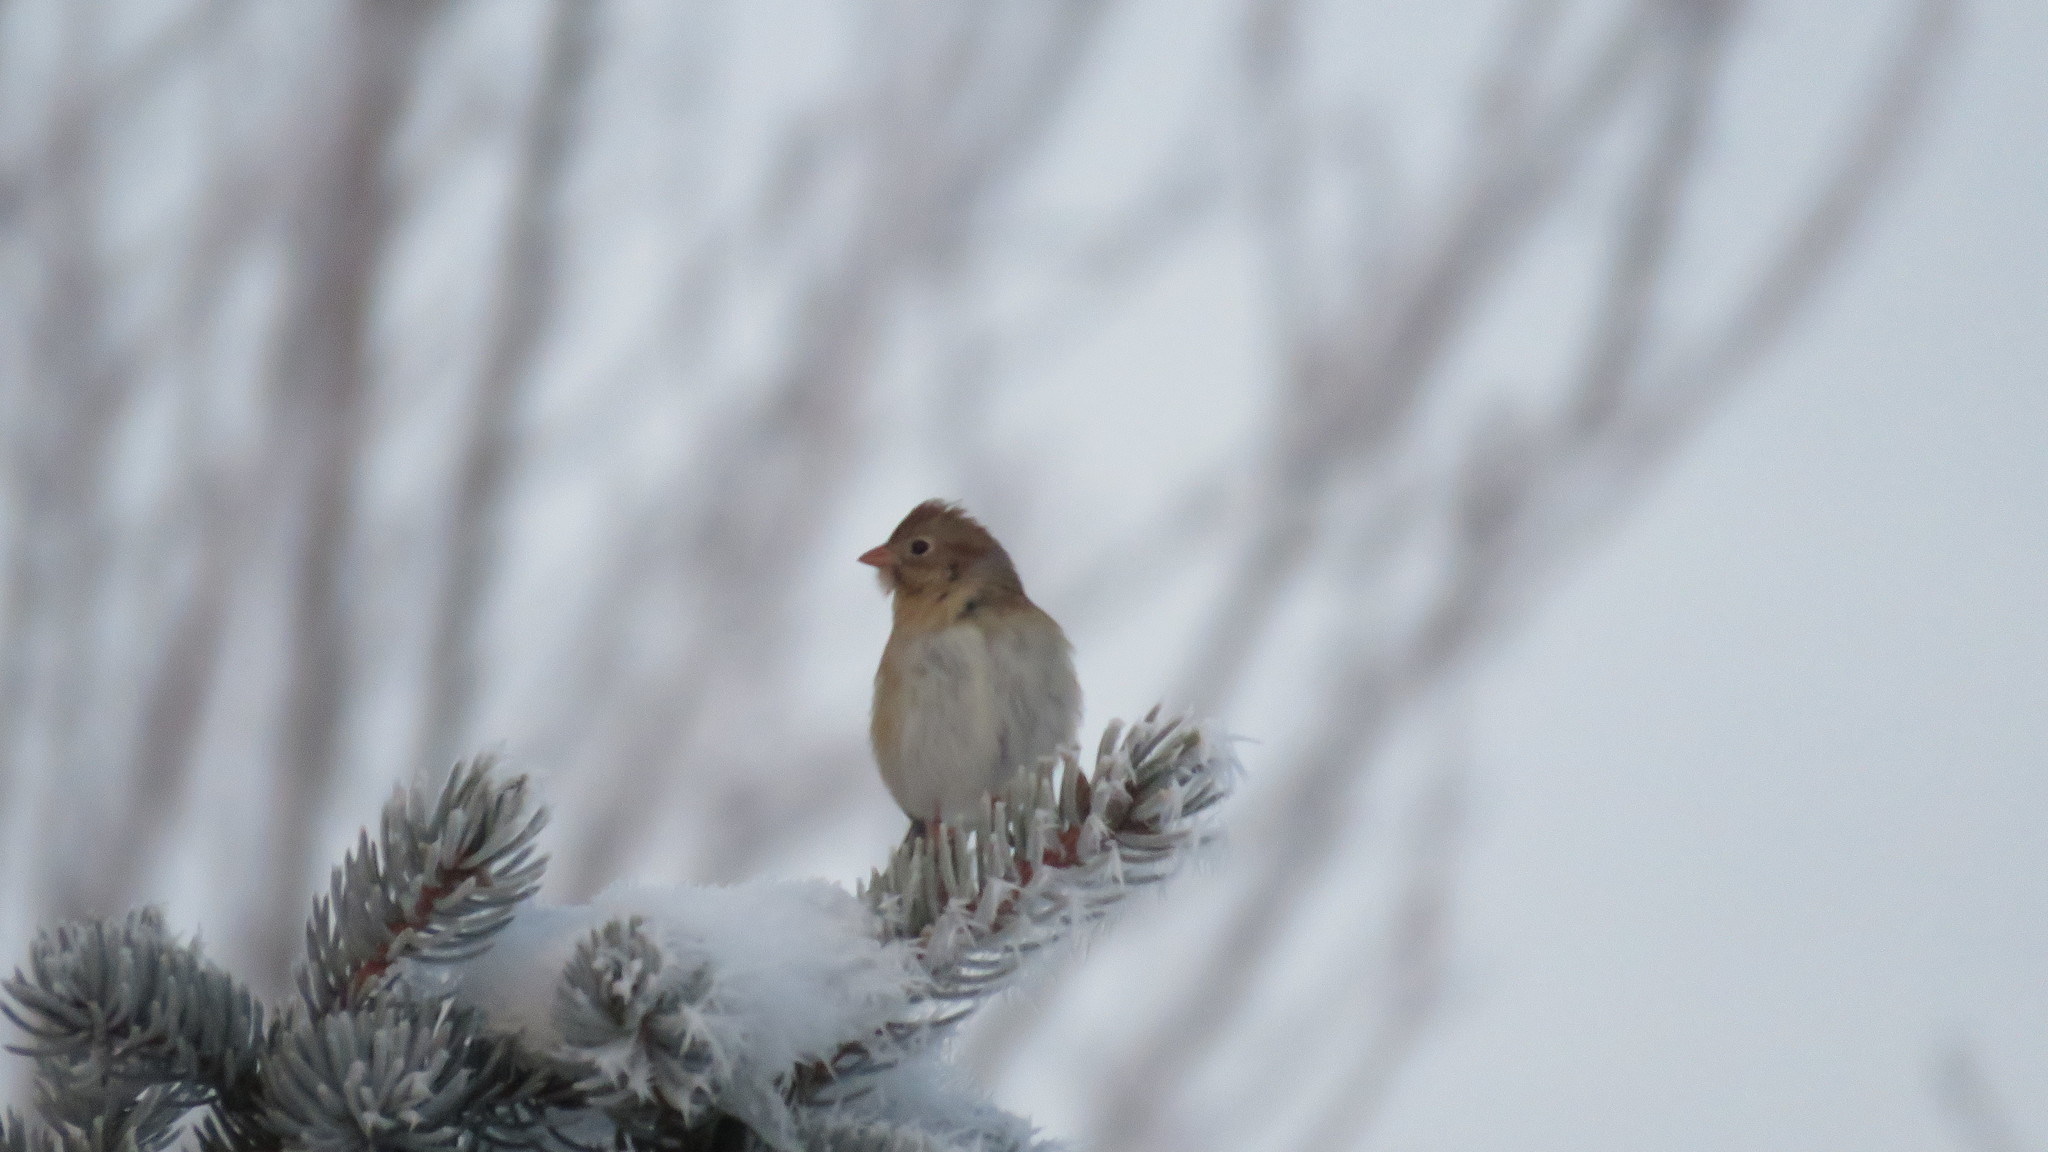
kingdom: Animalia
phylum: Chordata
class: Aves
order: Passeriformes
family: Passerellidae
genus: Spizella
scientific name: Spizella pusilla
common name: Field sparrow
